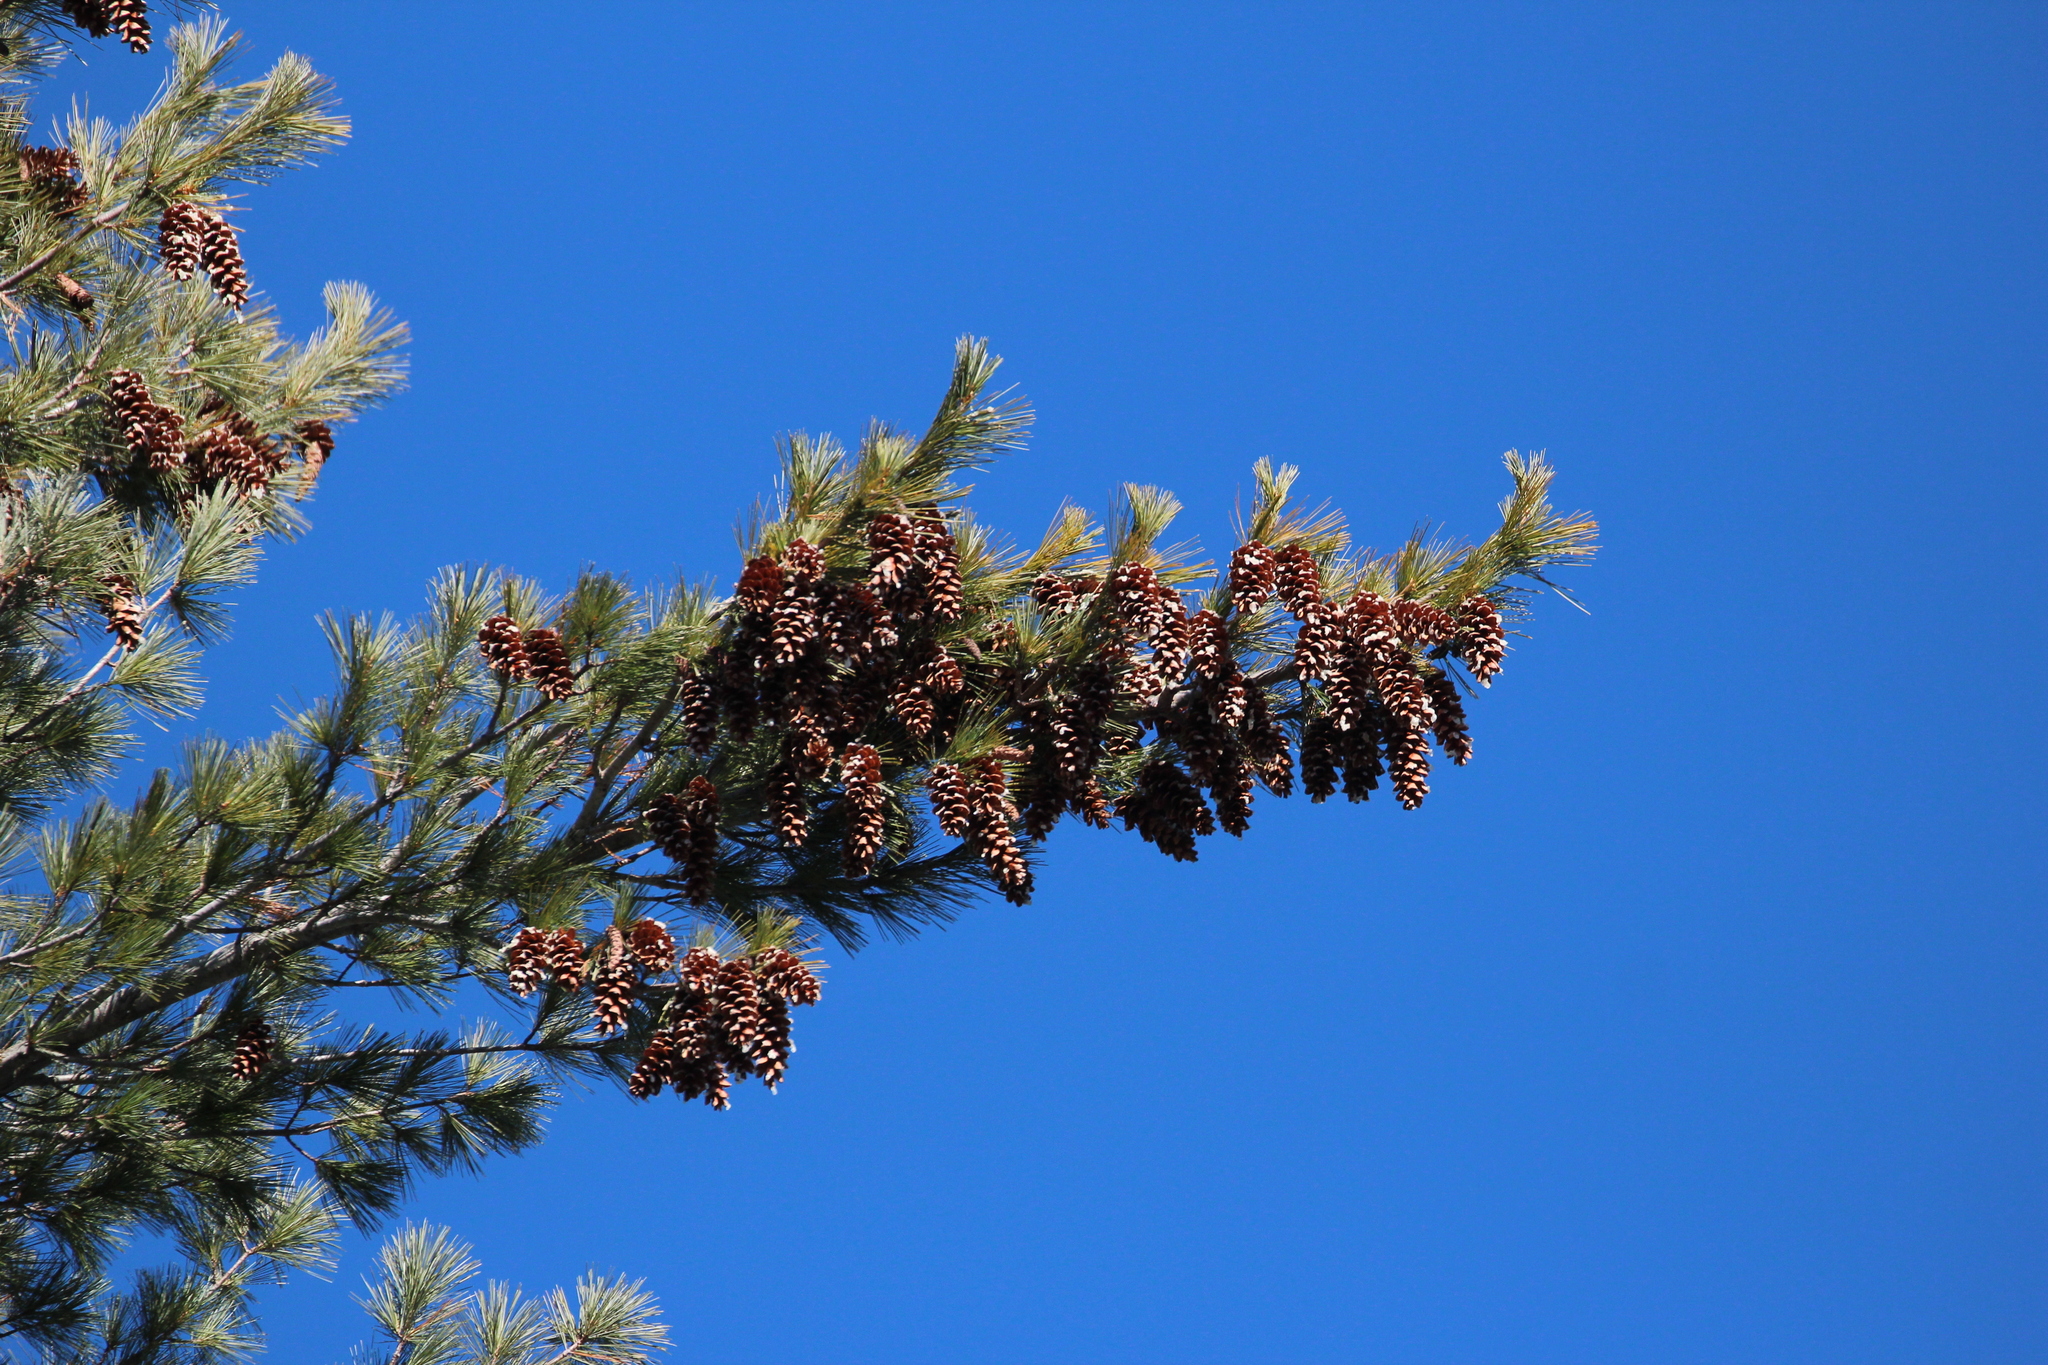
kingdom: Plantae
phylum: Tracheophyta
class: Pinopsida
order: Pinales
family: Pinaceae
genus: Pinus
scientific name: Pinus strobus
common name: Weymouth pine
